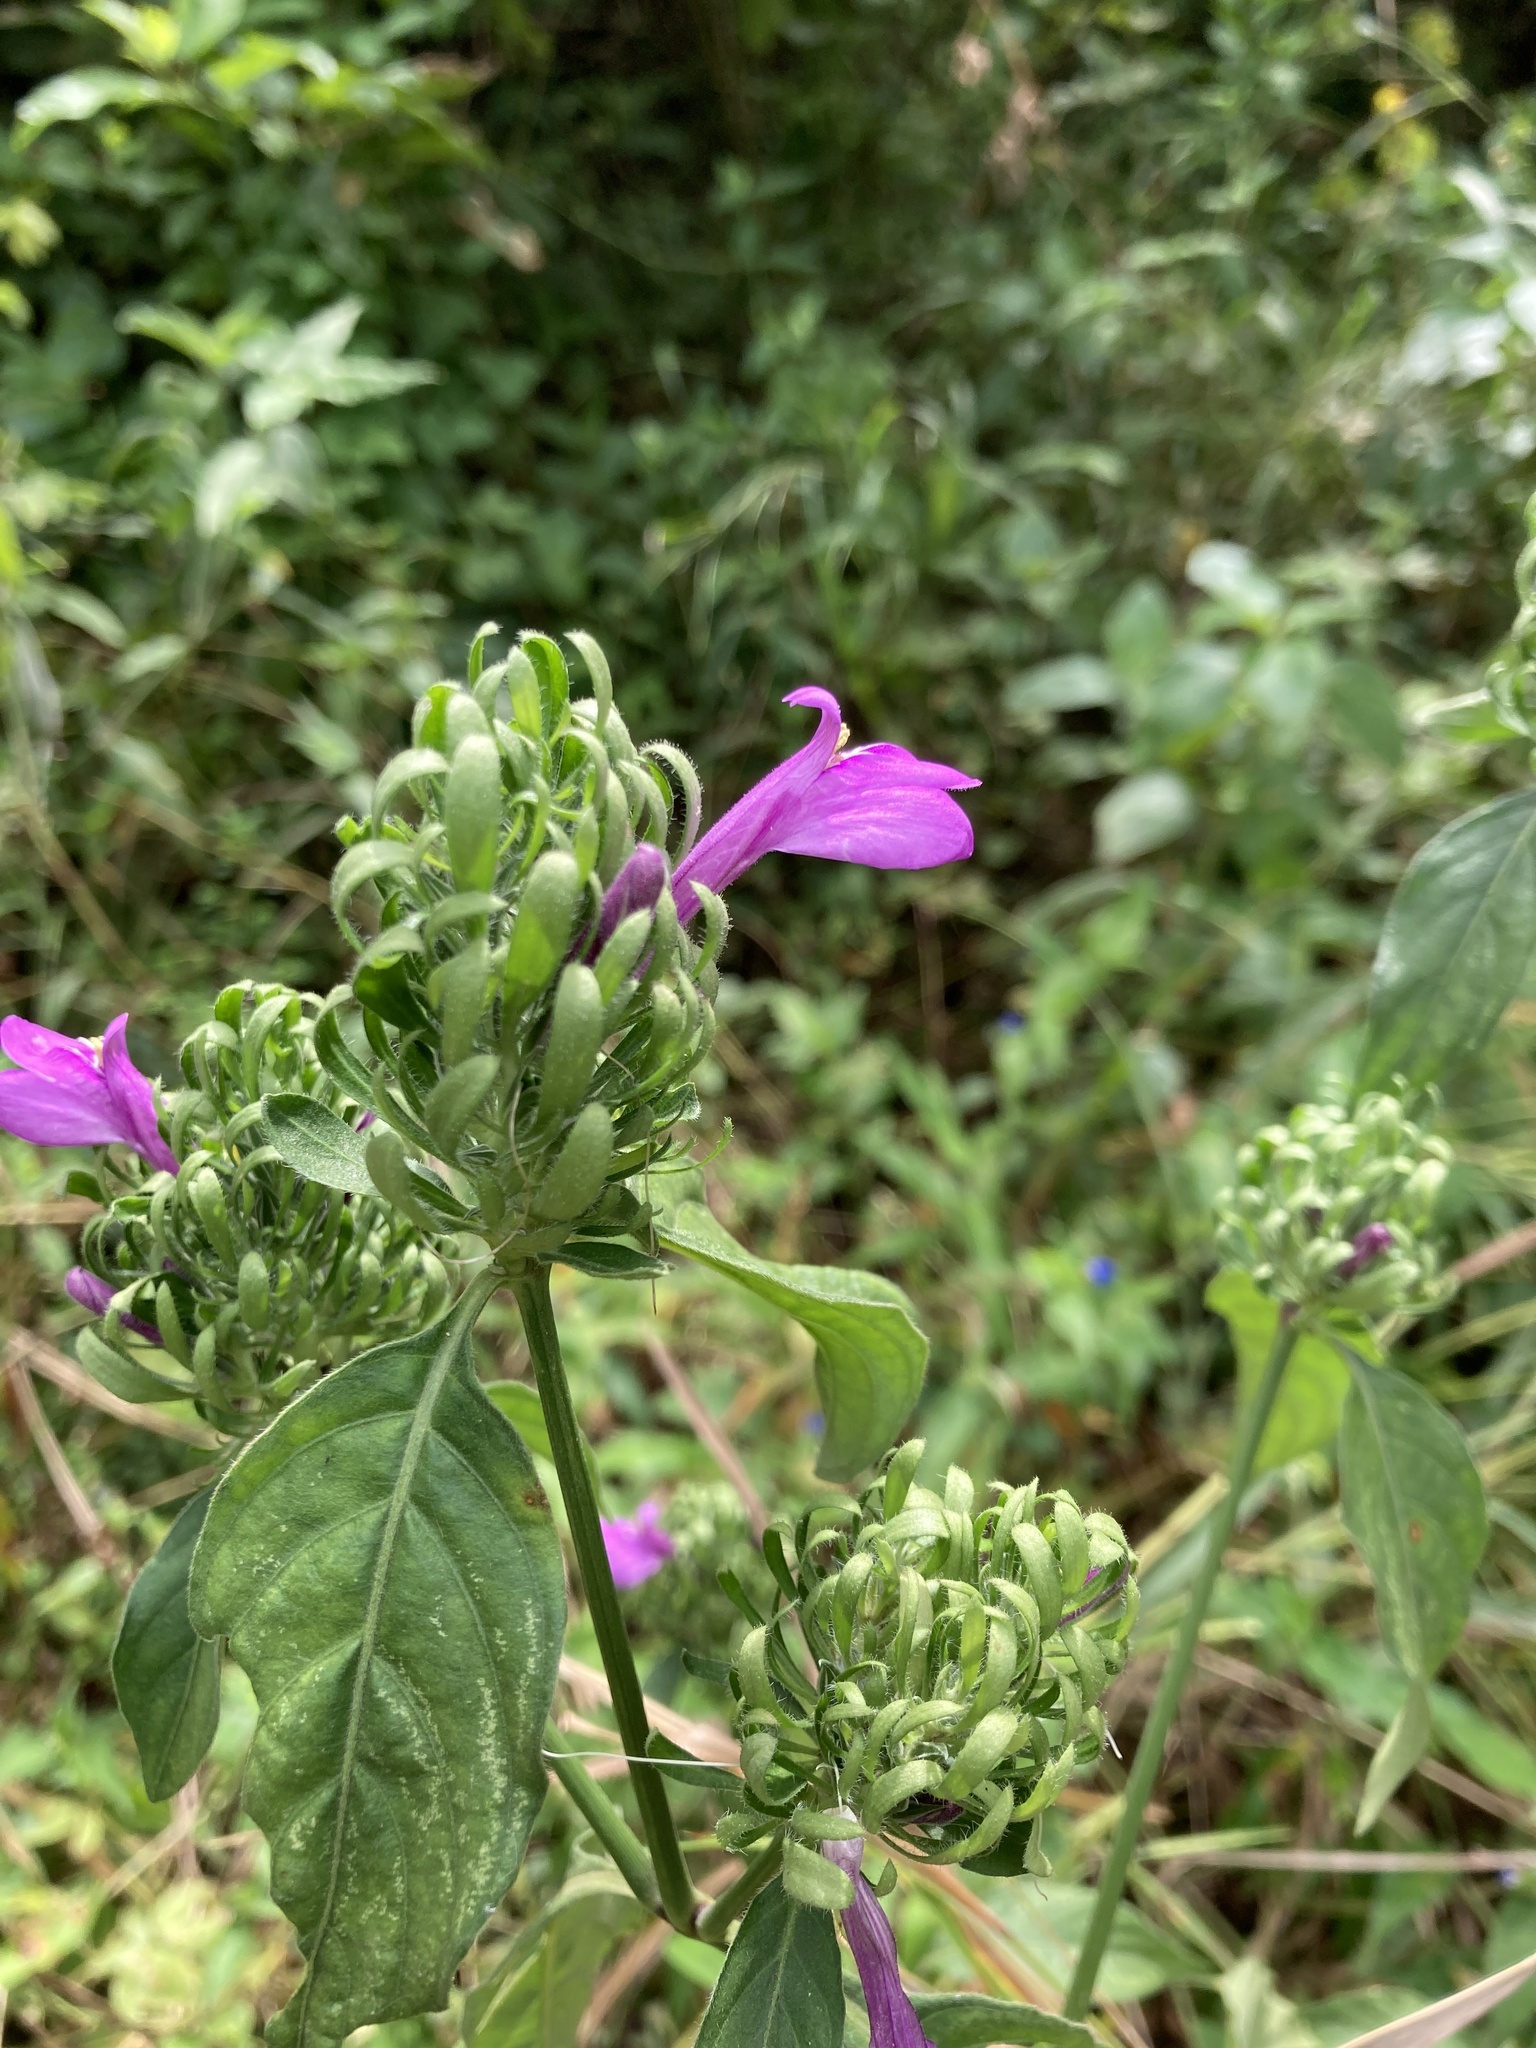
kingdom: Plantae
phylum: Tracheophyta
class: Magnoliopsida
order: Lamiales
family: Acanthaceae
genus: Justicia
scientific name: Justicia carthaginensis
